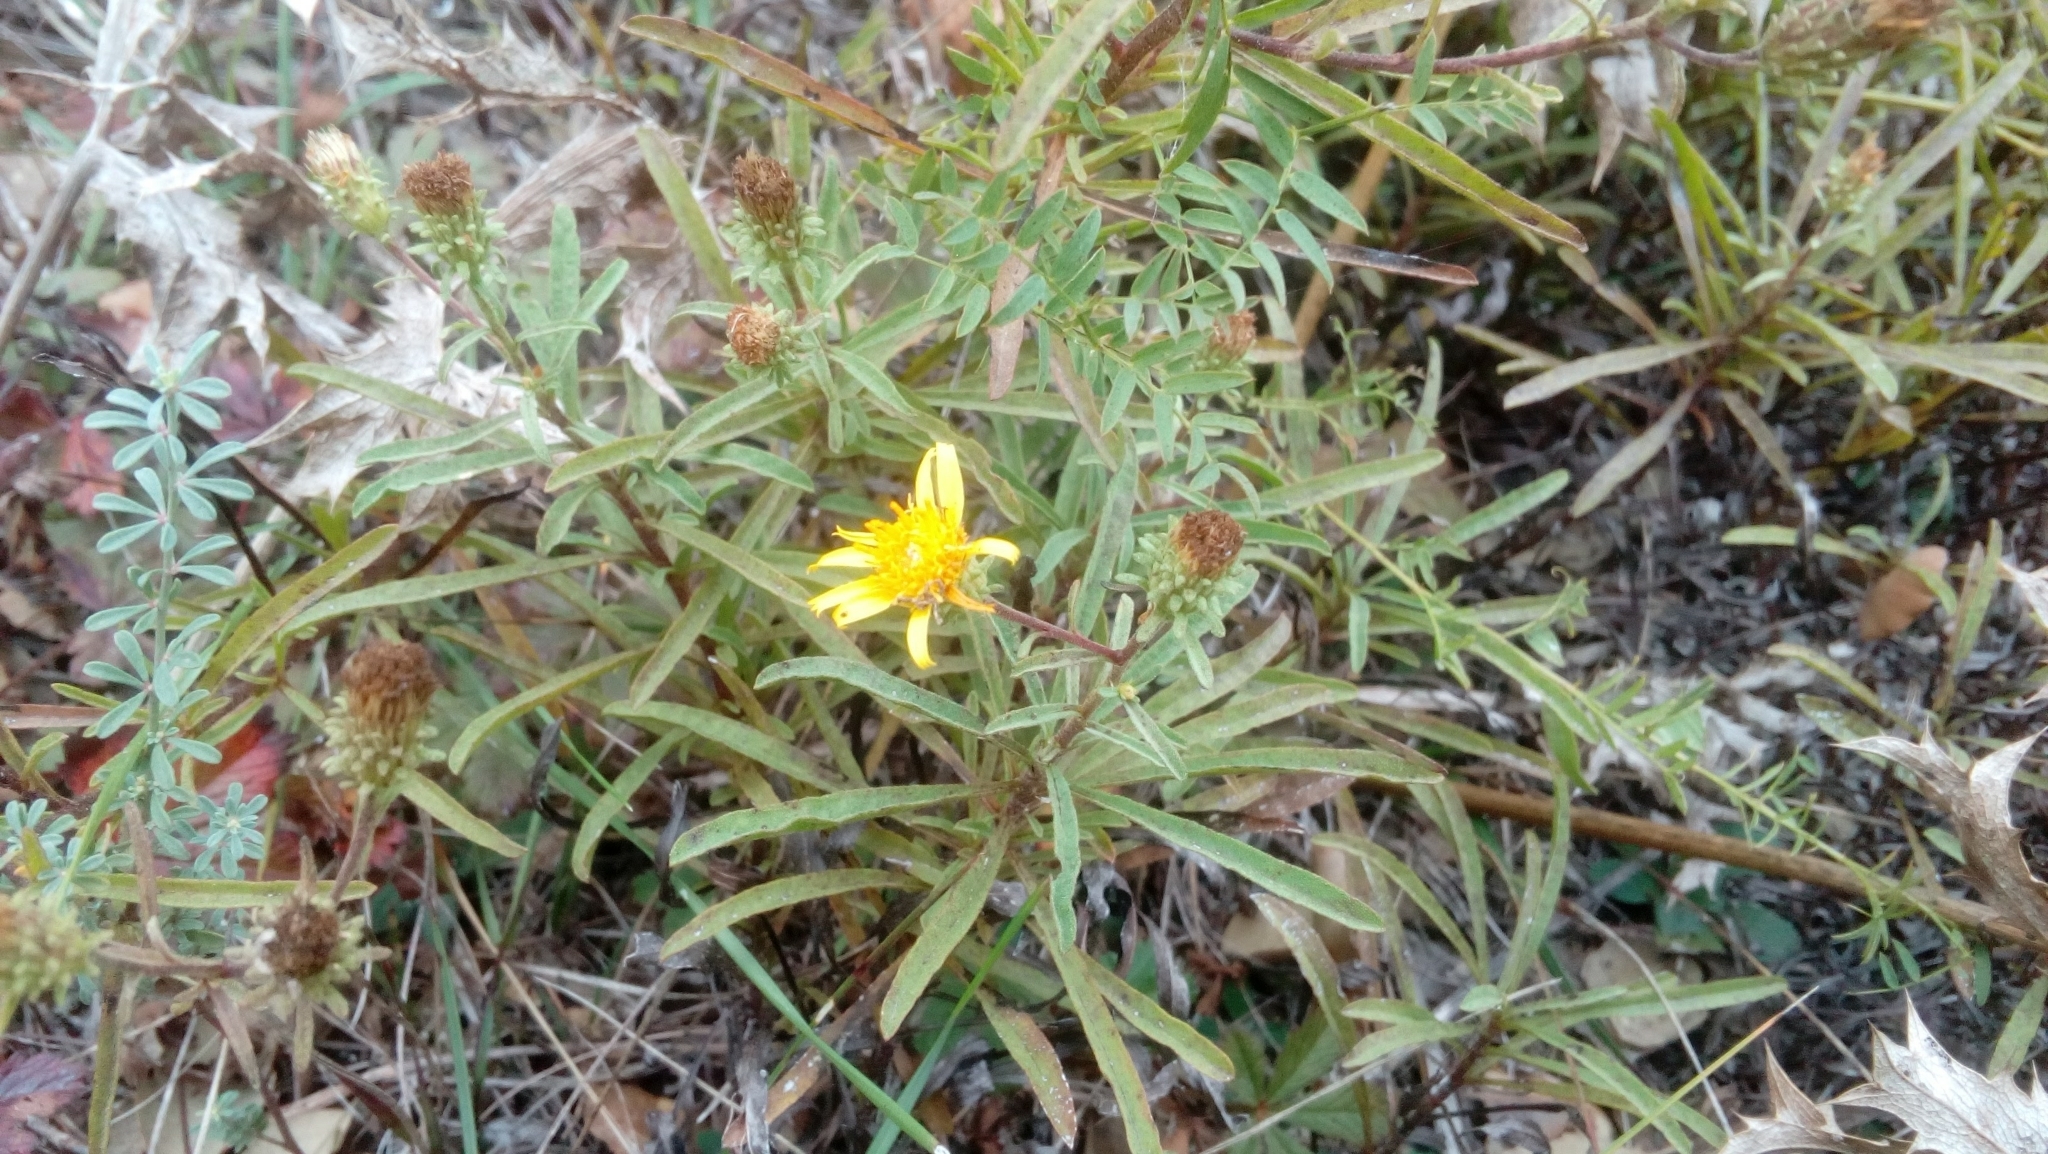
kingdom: Plantae
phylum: Tracheophyta
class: Magnoliopsida
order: Asterales
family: Asteraceae
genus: Jasonia
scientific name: Jasonia tuberosa
